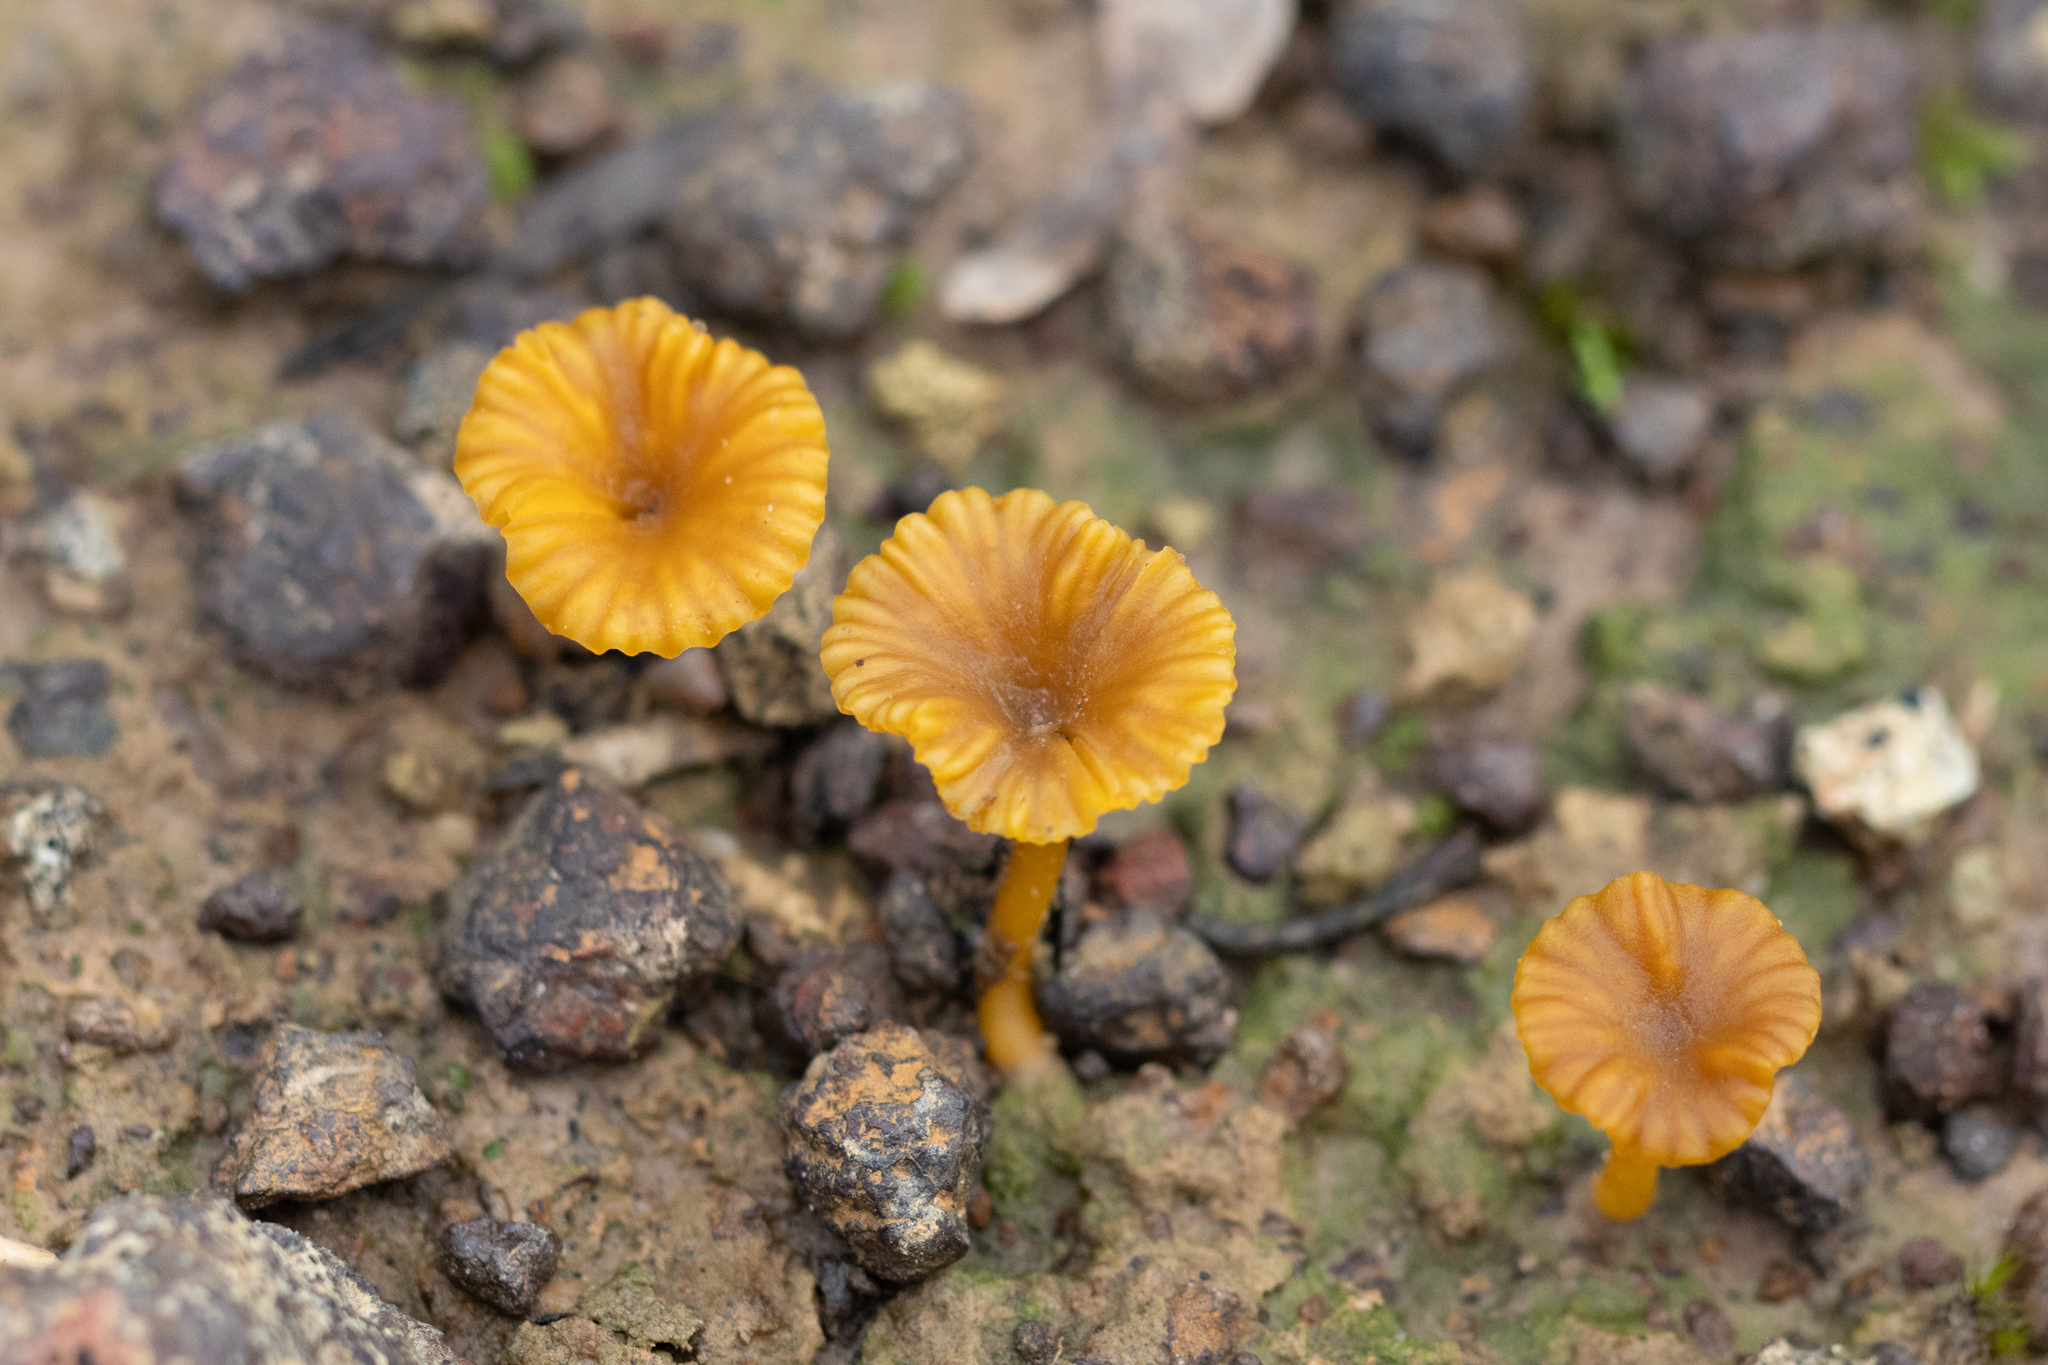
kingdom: Fungi
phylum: Basidiomycota
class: Agaricomycetes
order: Agaricales
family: Hygrophoraceae
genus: Lichenomphalia
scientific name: Lichenomphalia chromacea
